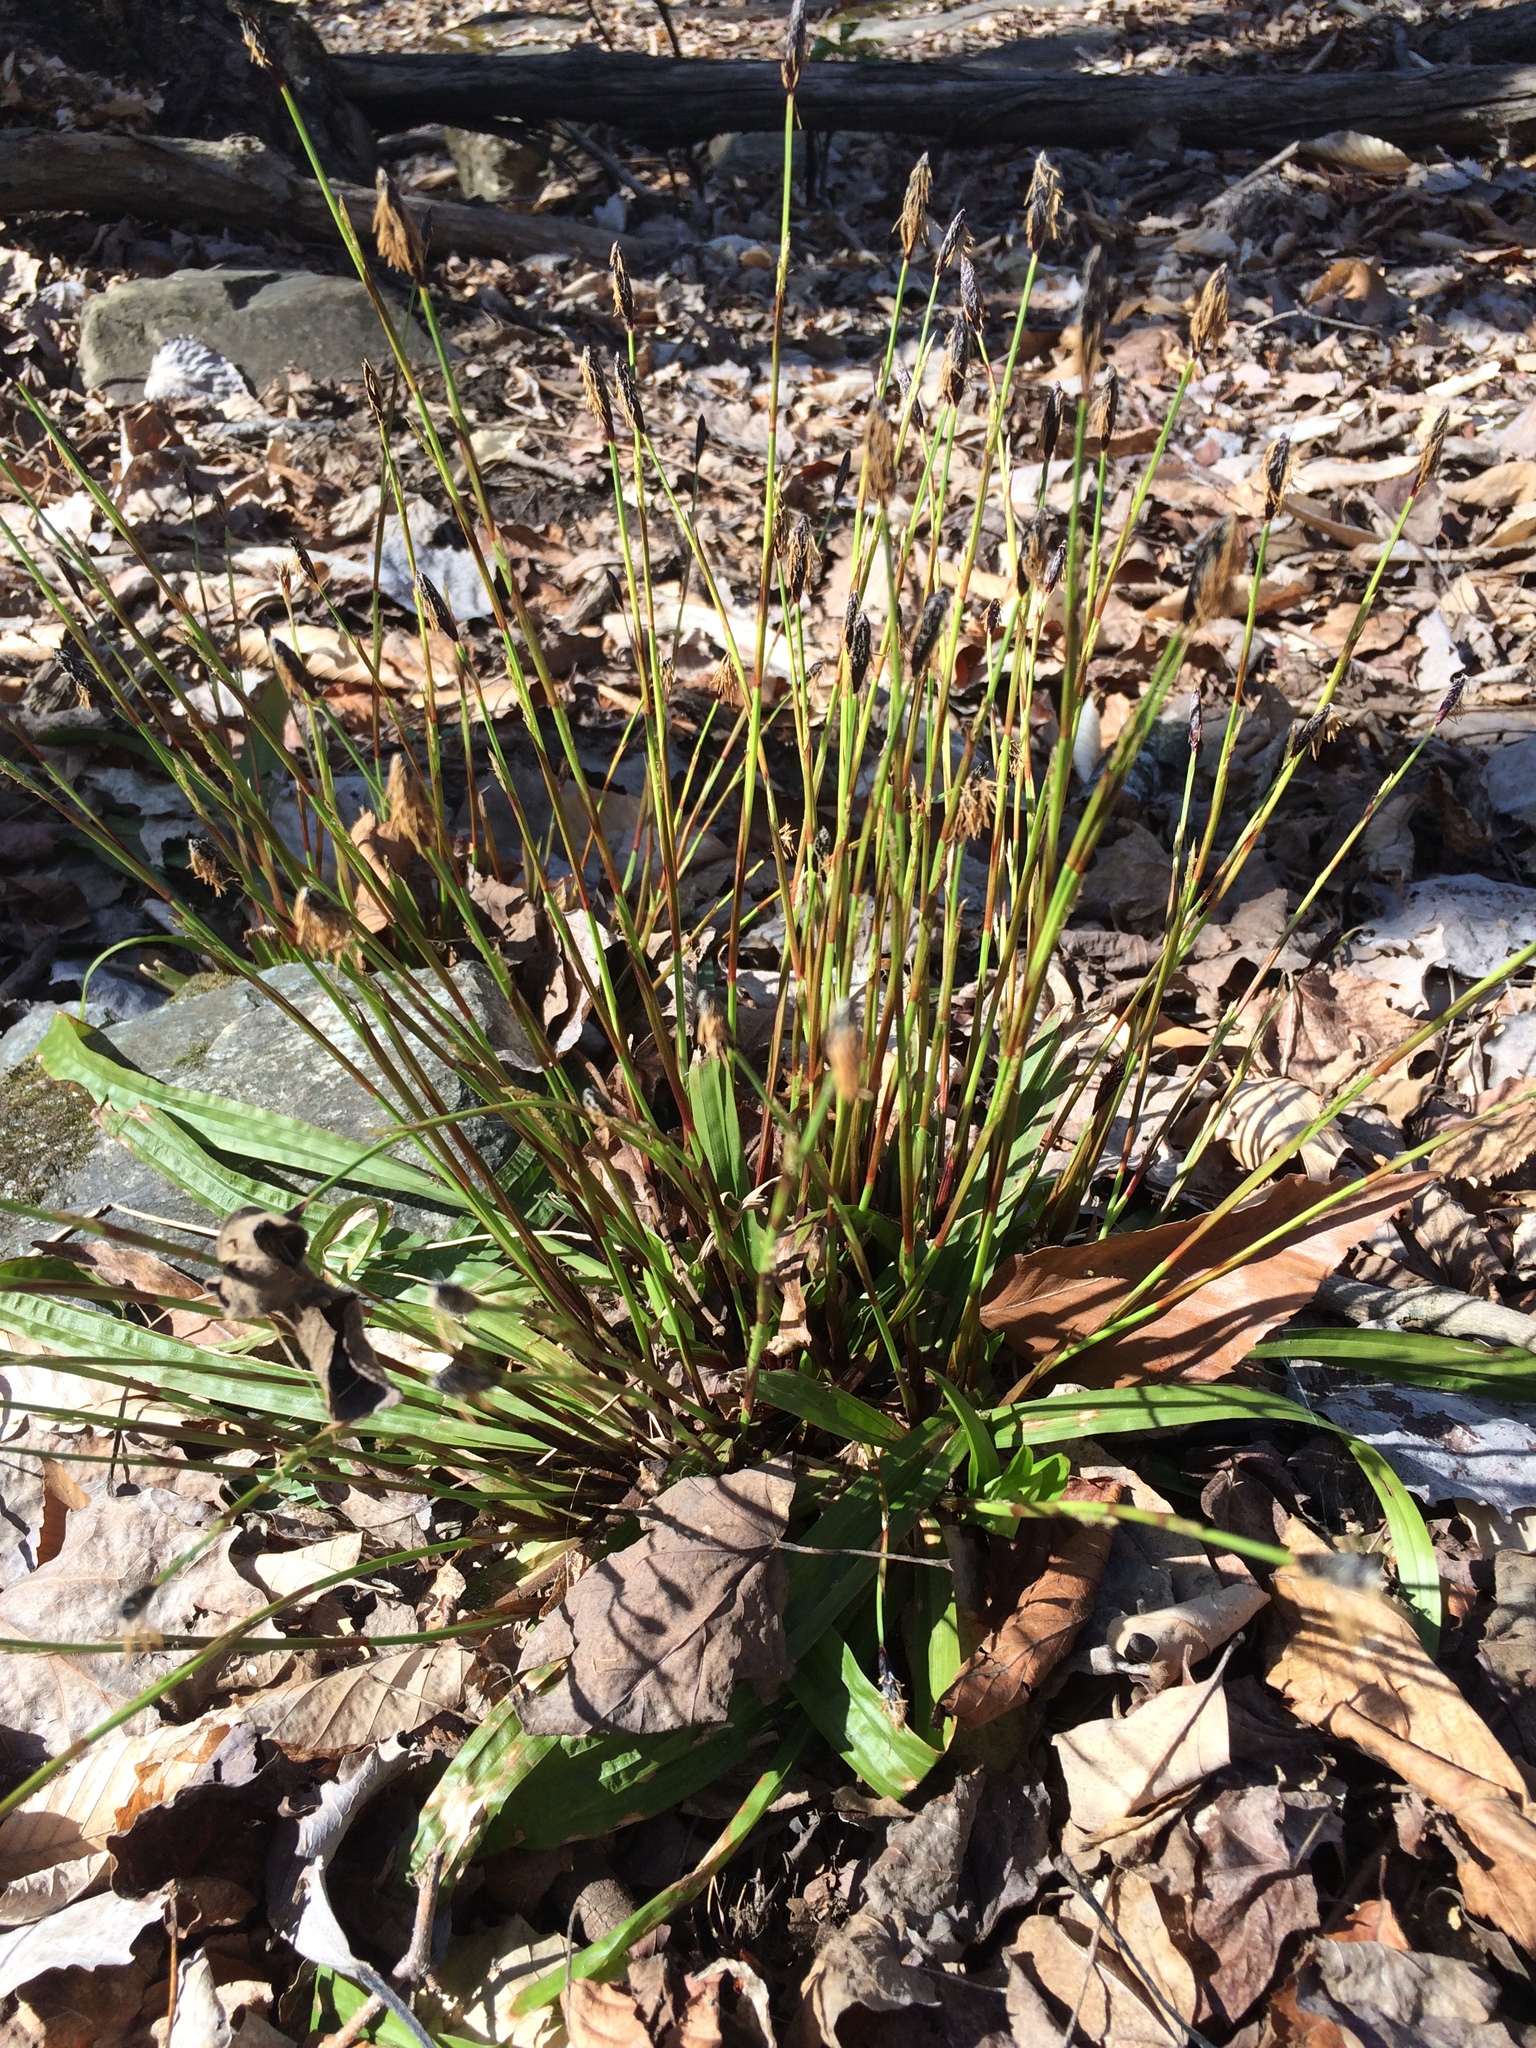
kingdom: Plantae
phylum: Tracheophyta
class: Liliopsida
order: Poales
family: Cyperaceae
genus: Carex
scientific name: Carex plantaginea
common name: Plantain-leaved sedge
